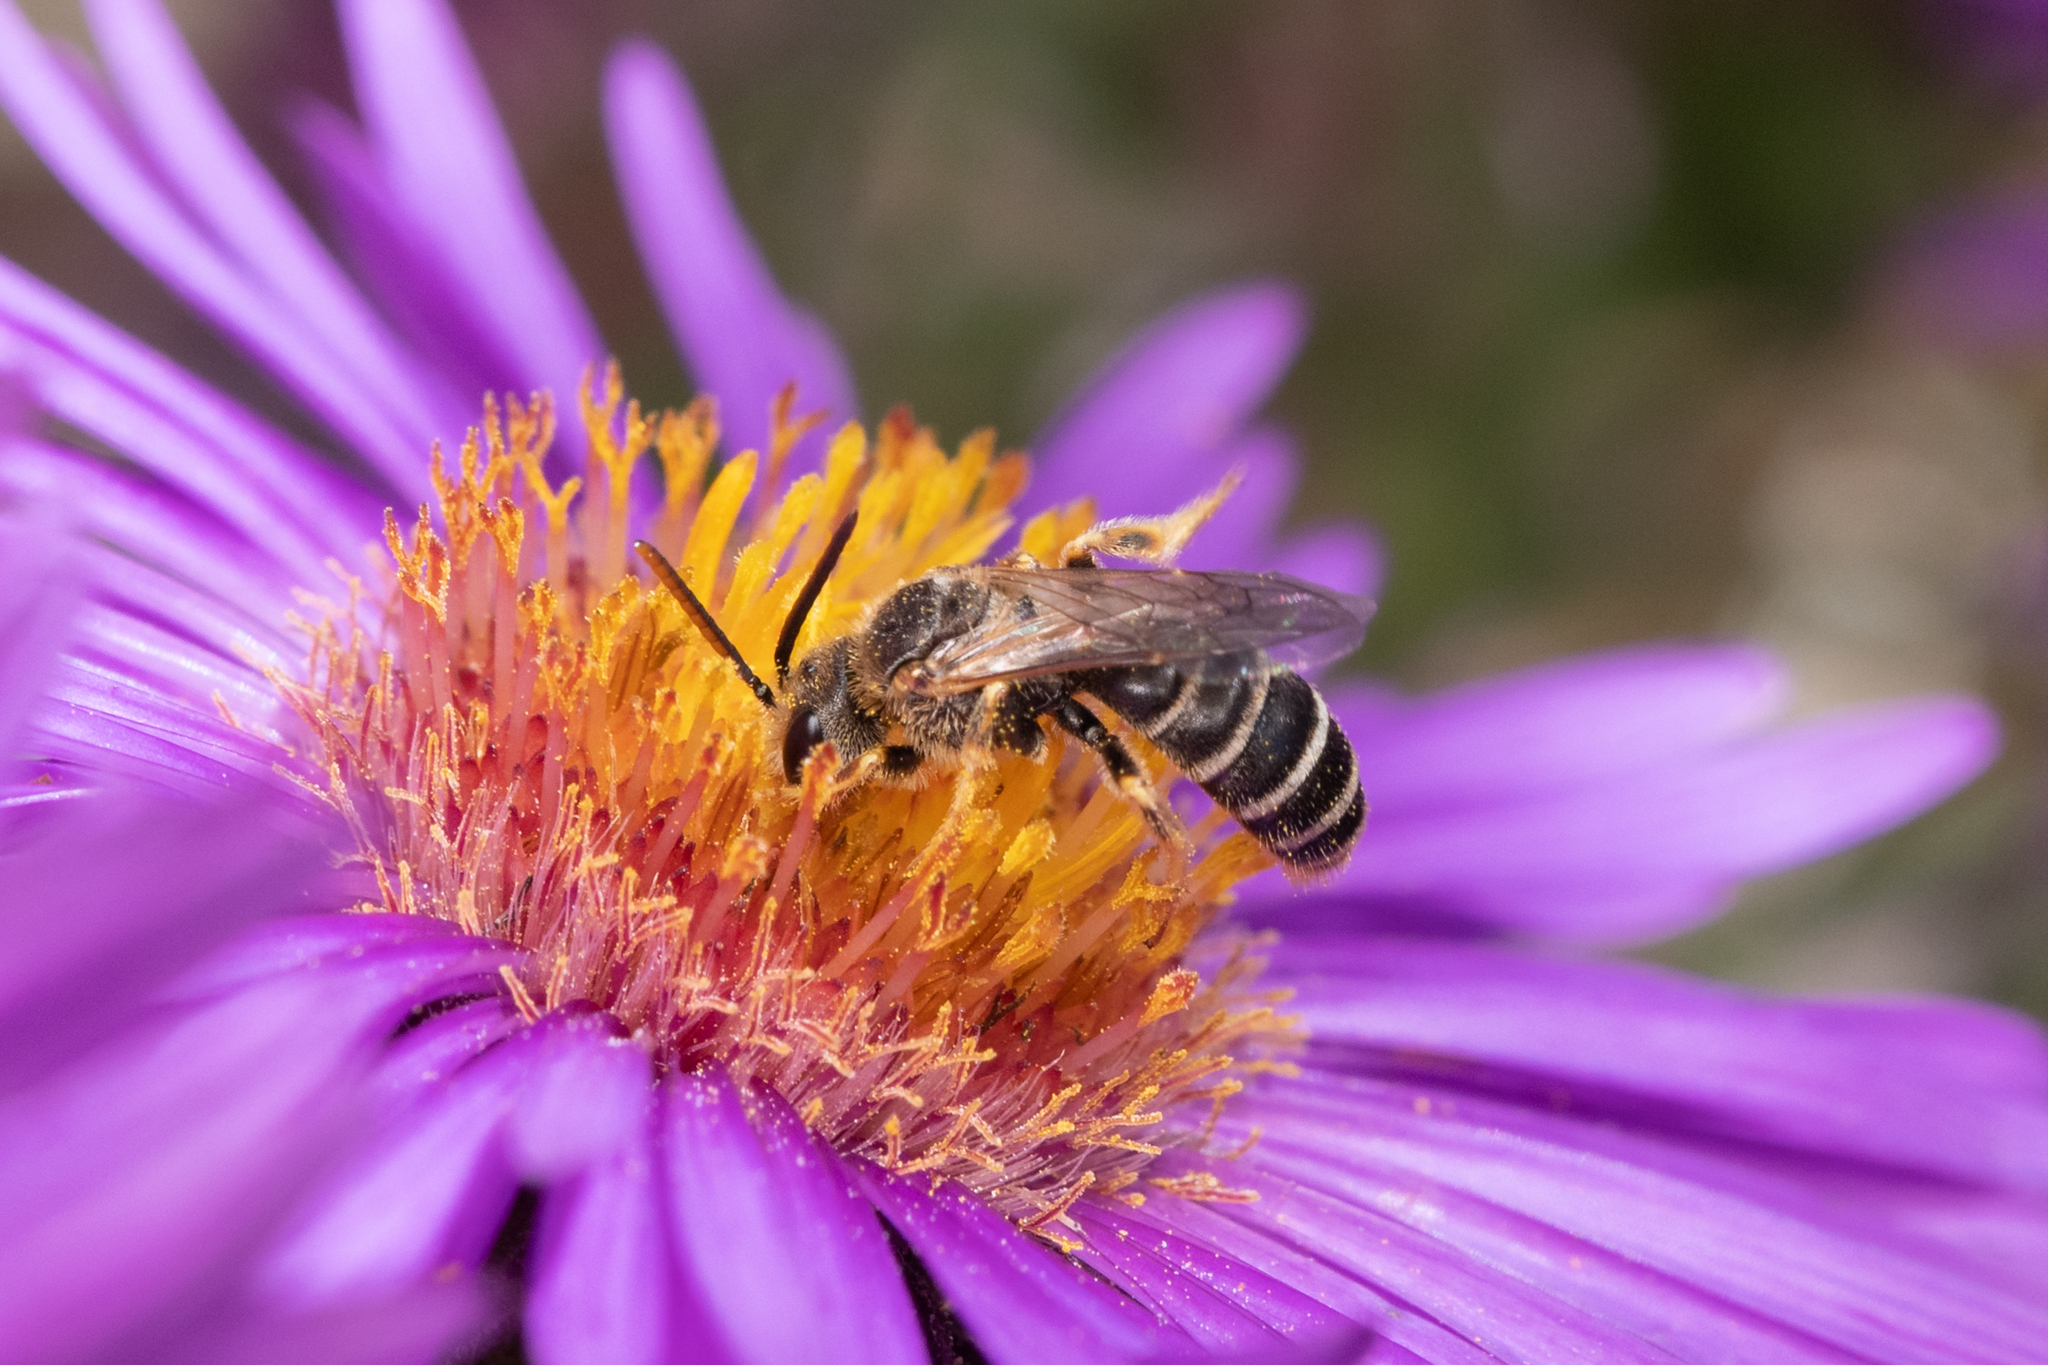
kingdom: Animalia
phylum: Arthropoda
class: Insecta
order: Hymenoptera
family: Halictidae
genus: Halictus
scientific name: Halictus ligatus
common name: Ligated furrow bee
